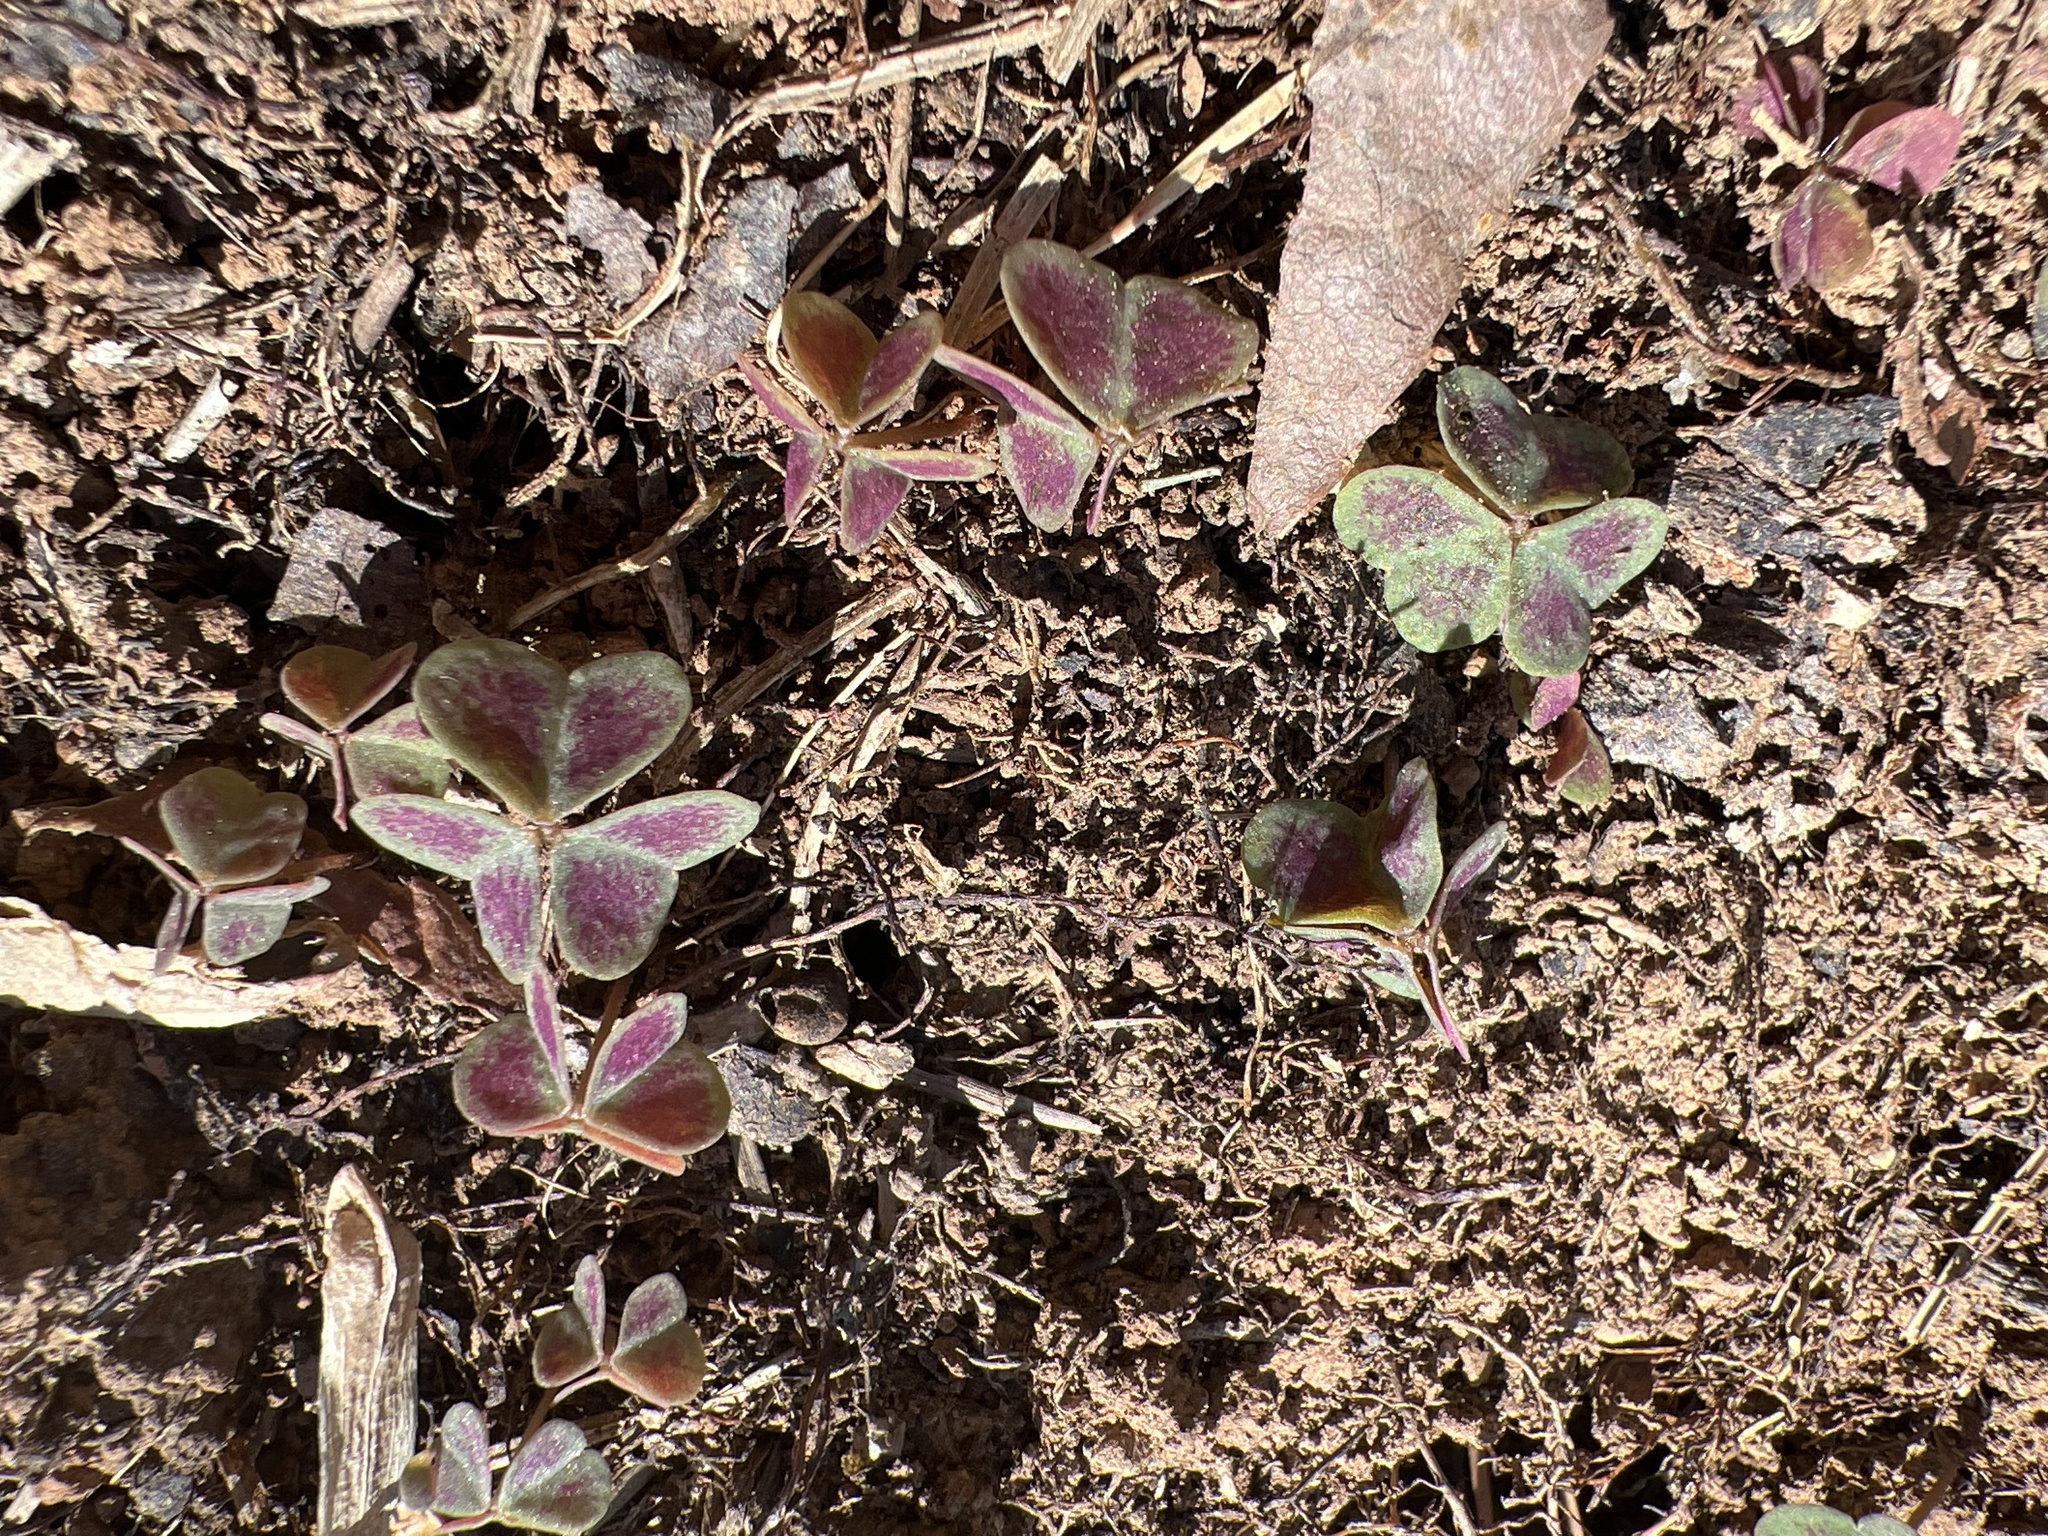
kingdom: Plantae
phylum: Tracheophyta
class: Magnoliopsida
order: Oxalidales
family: Oxalidaceae
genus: Oxalis
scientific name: Oxalis violacea
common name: Violet wood-sorrel
